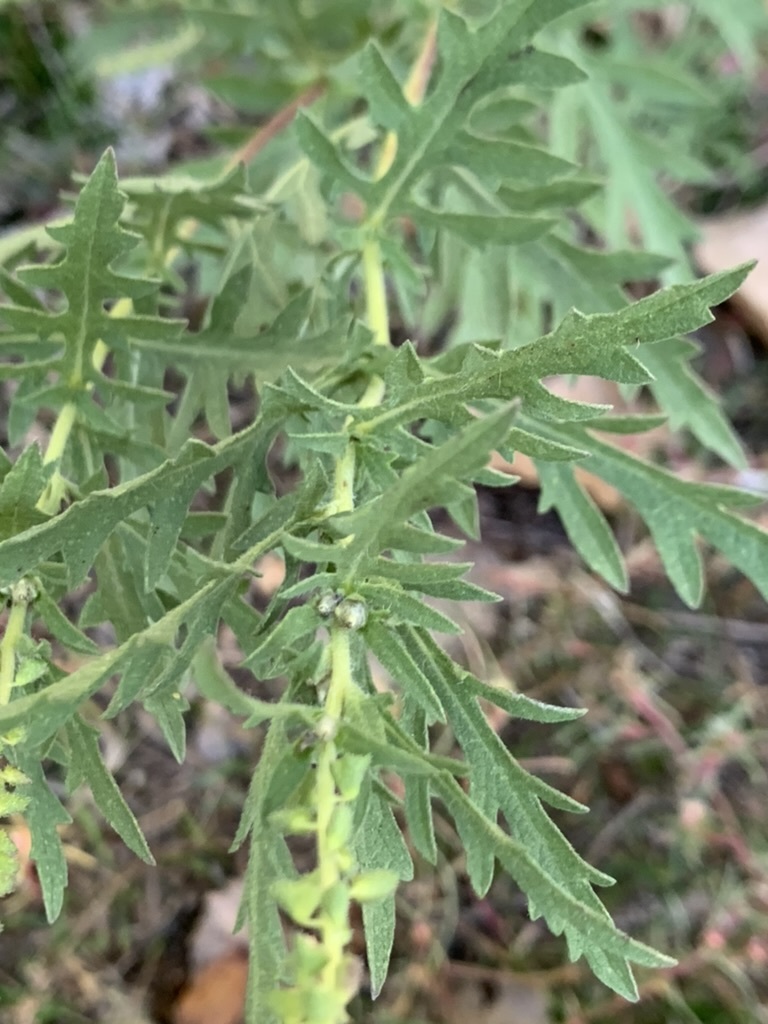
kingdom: Plantae
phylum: Tracheophyta
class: Magnoliopsida
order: Asterales
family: Asteraceae
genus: Ambrosia
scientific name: Ambrosia psilostachya
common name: Perennial ragweed
